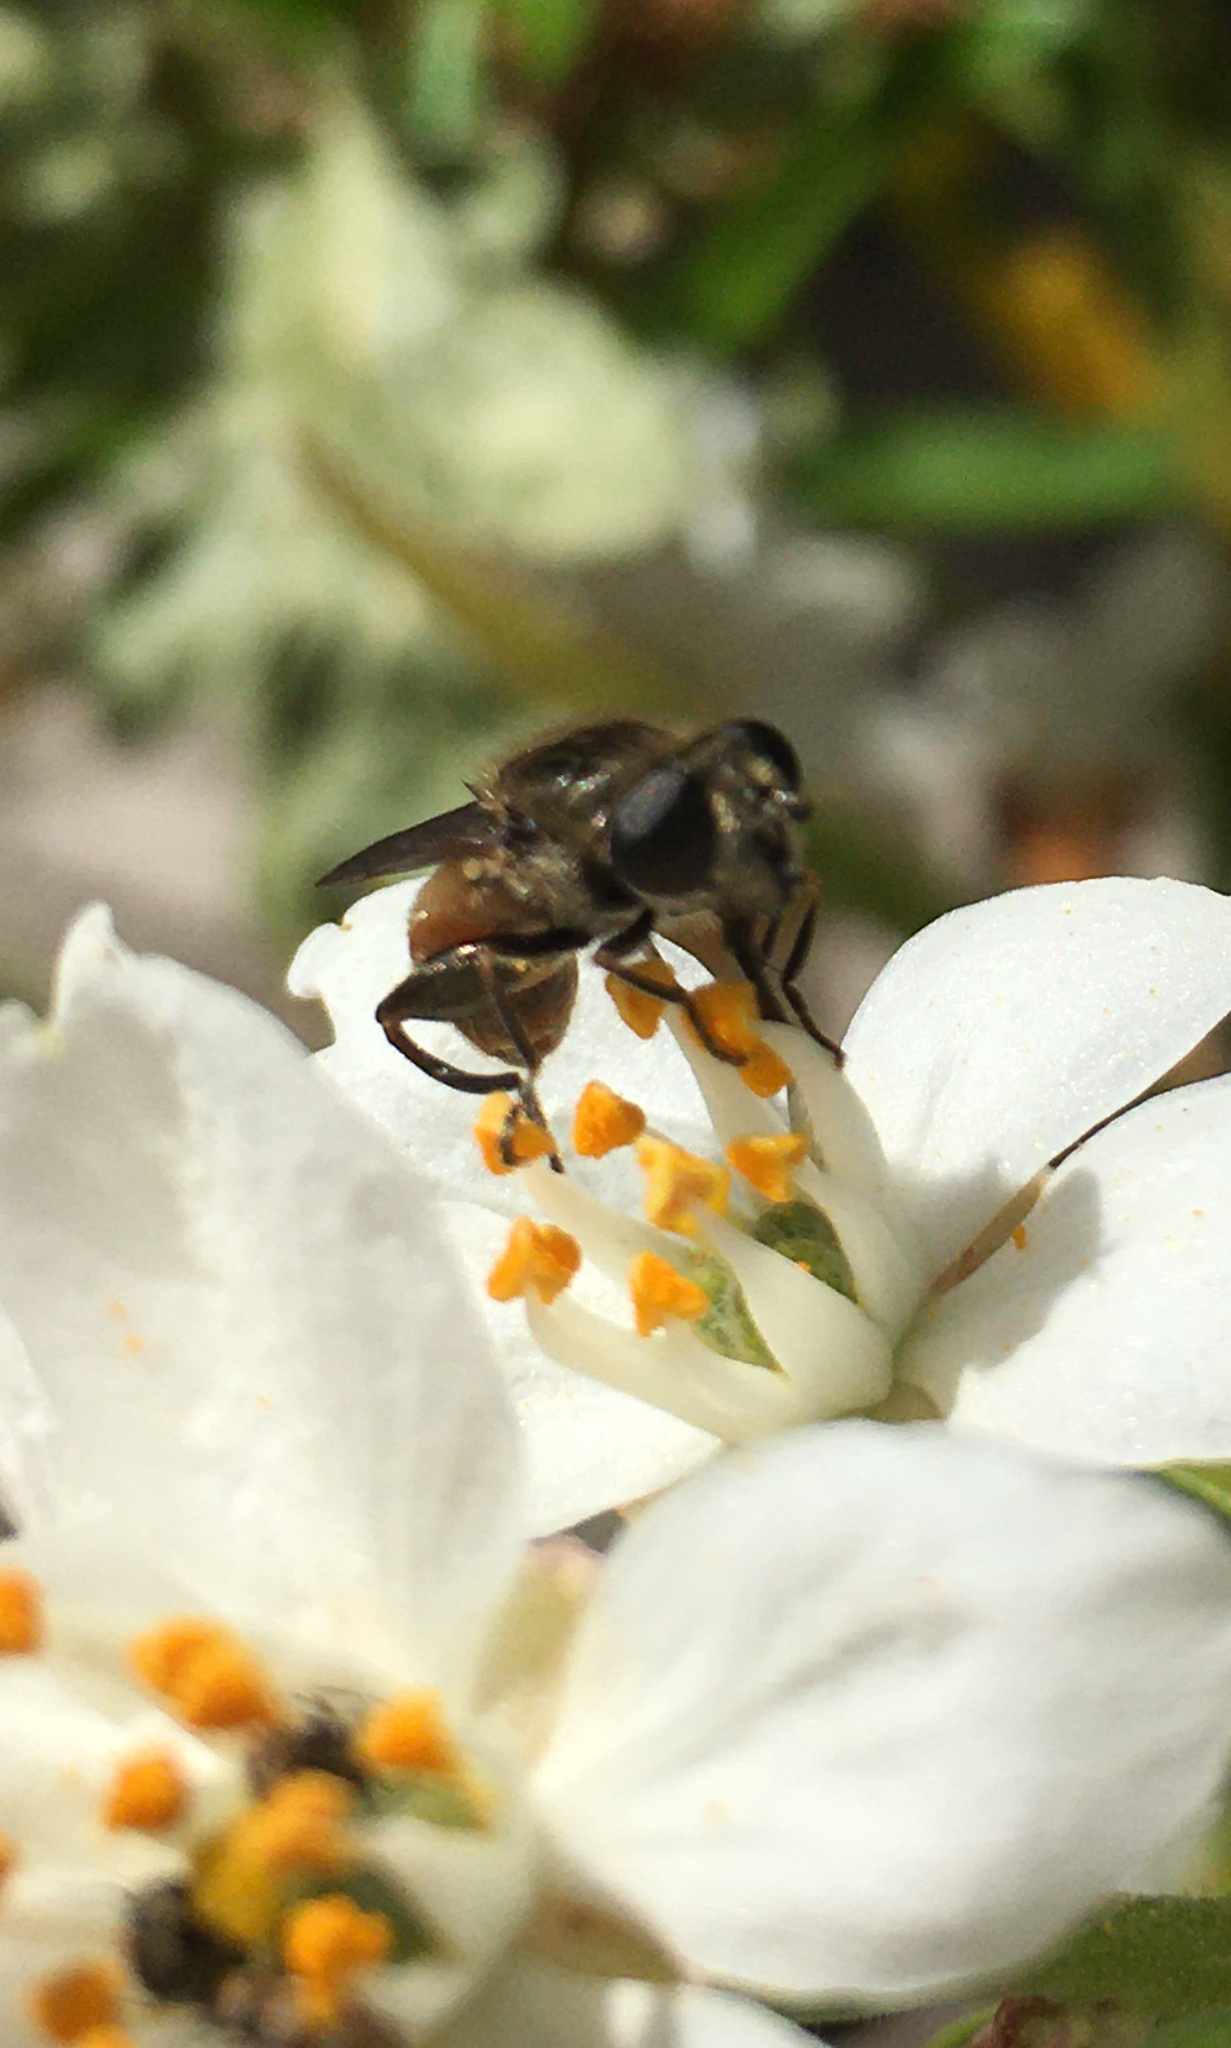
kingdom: Animalia
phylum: Arthropoda
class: Insecta
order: Diptera
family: Syrphidae
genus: Asemosyrphus
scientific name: Asemosyrphus polygrammus
